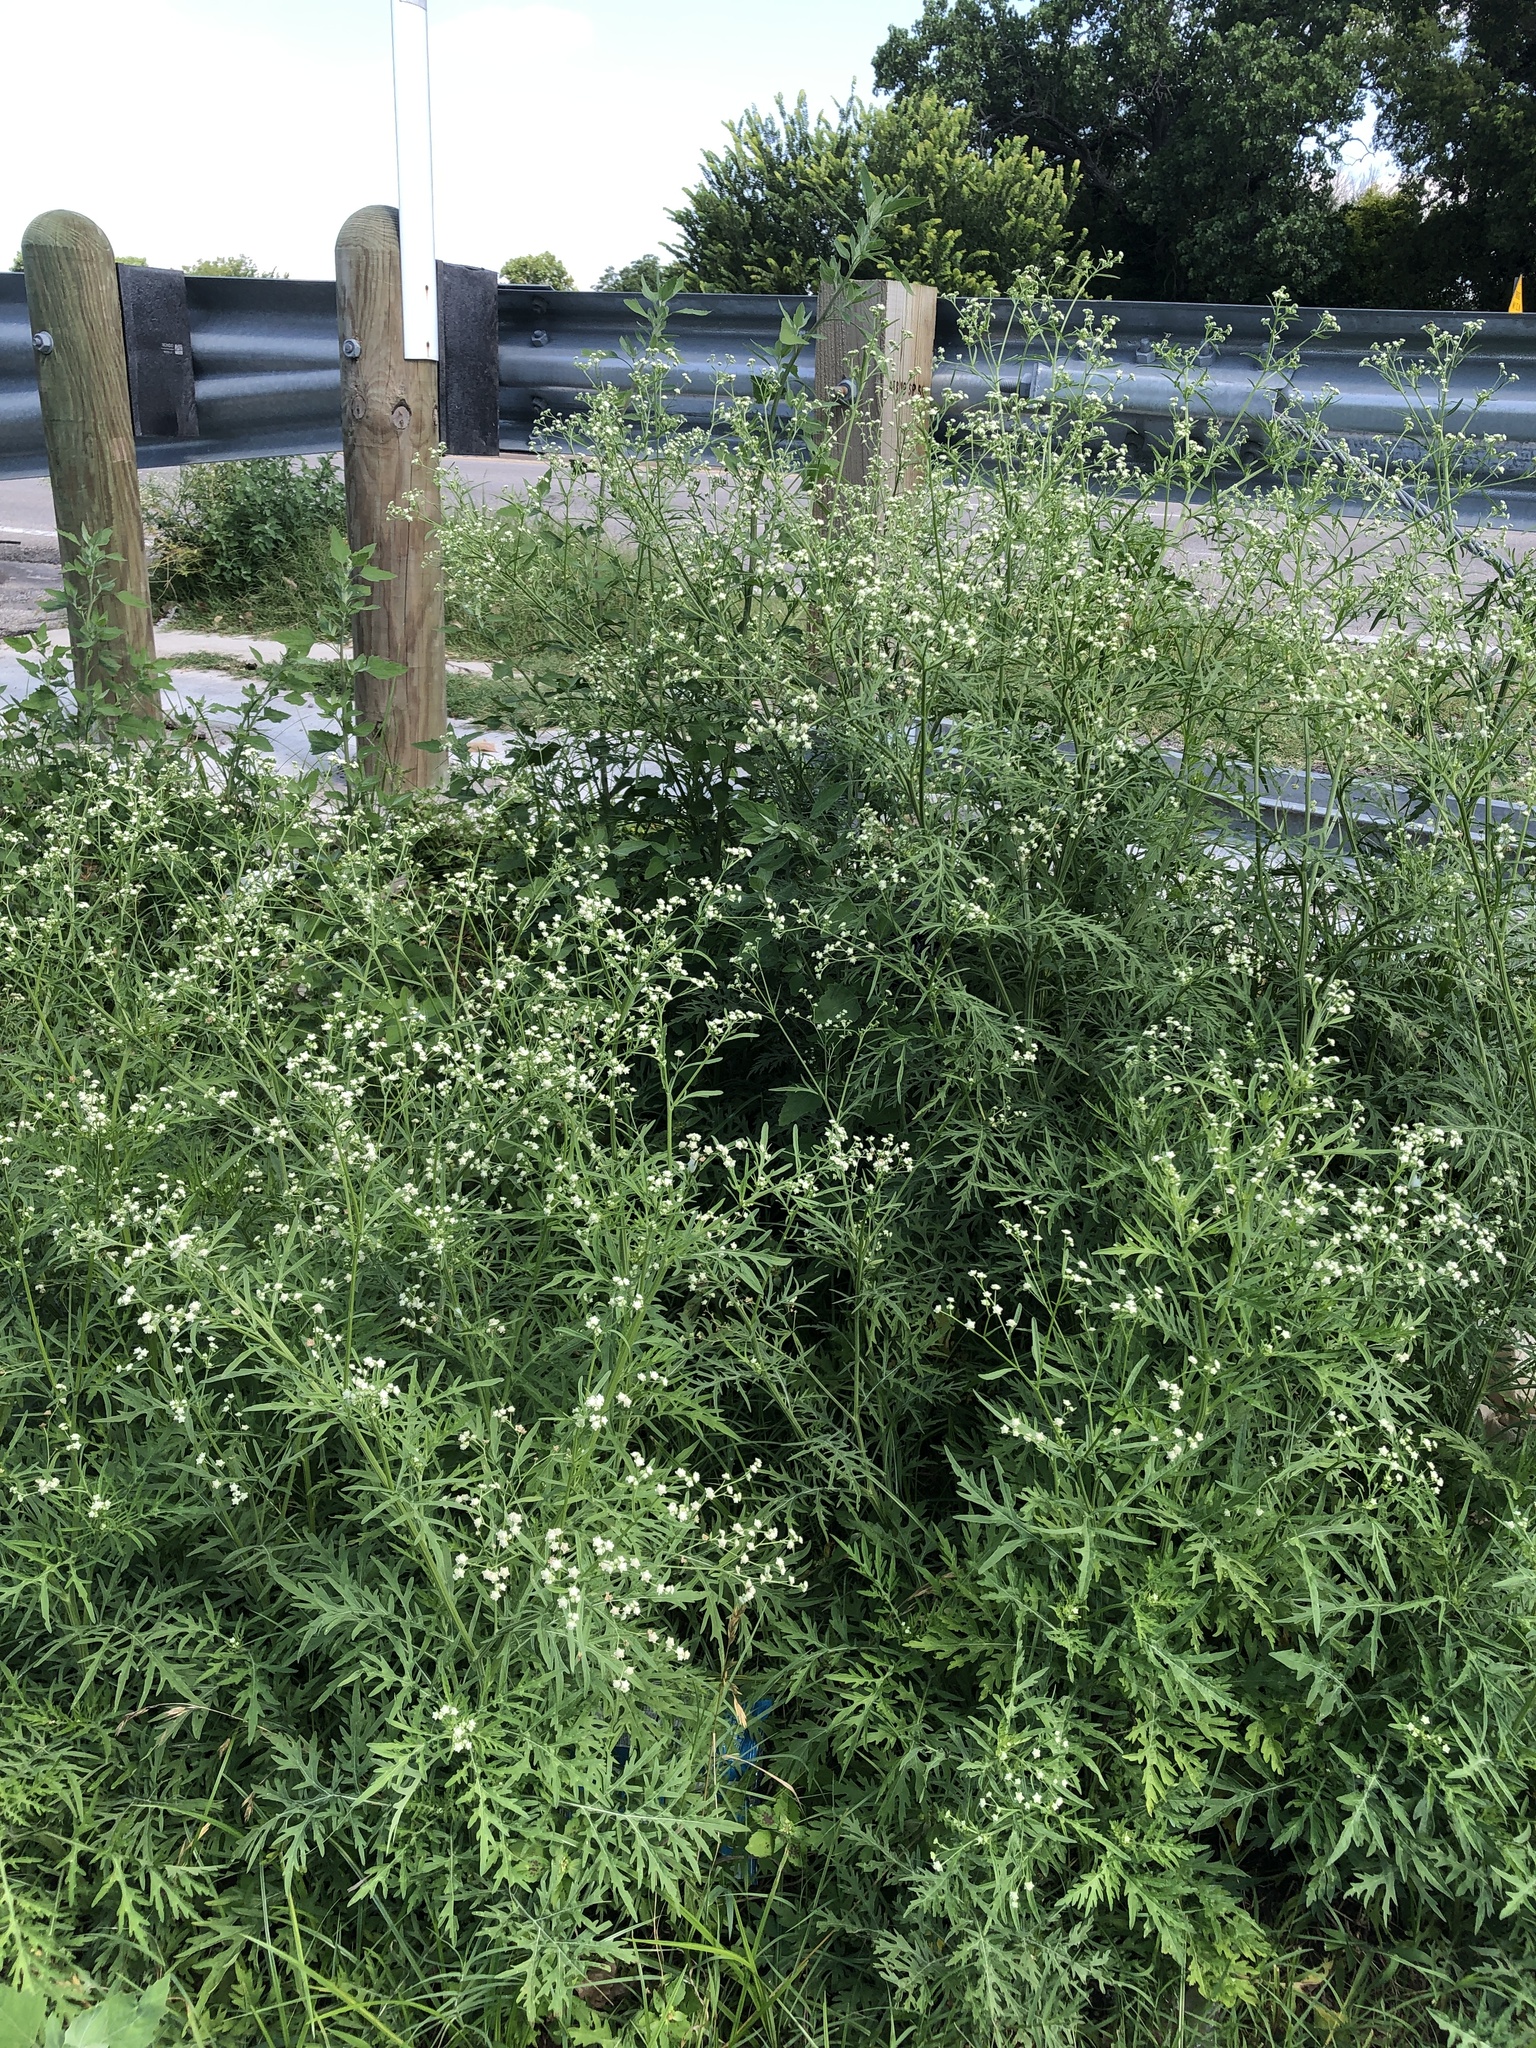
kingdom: Plantae
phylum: Tracheophyta
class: Magnoliopsida
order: Asterales
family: Asteraceae
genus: Parthenium
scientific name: Parthenium hysterophorus
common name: Santa maria feverfew
